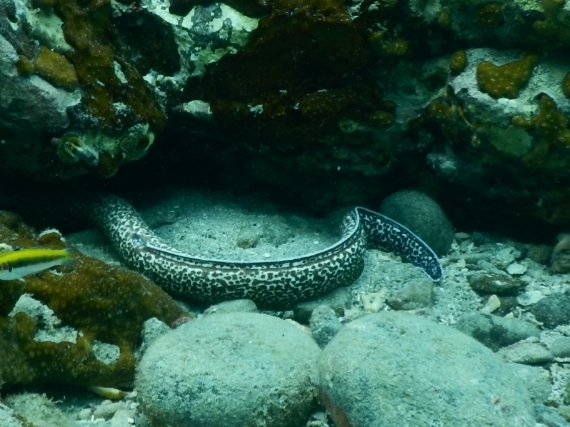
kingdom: Animalia
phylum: Chordata
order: Anguilliformes
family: Muraenidae
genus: Gymnothorax
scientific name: Gymnothorax moringa
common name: Spotted moray
